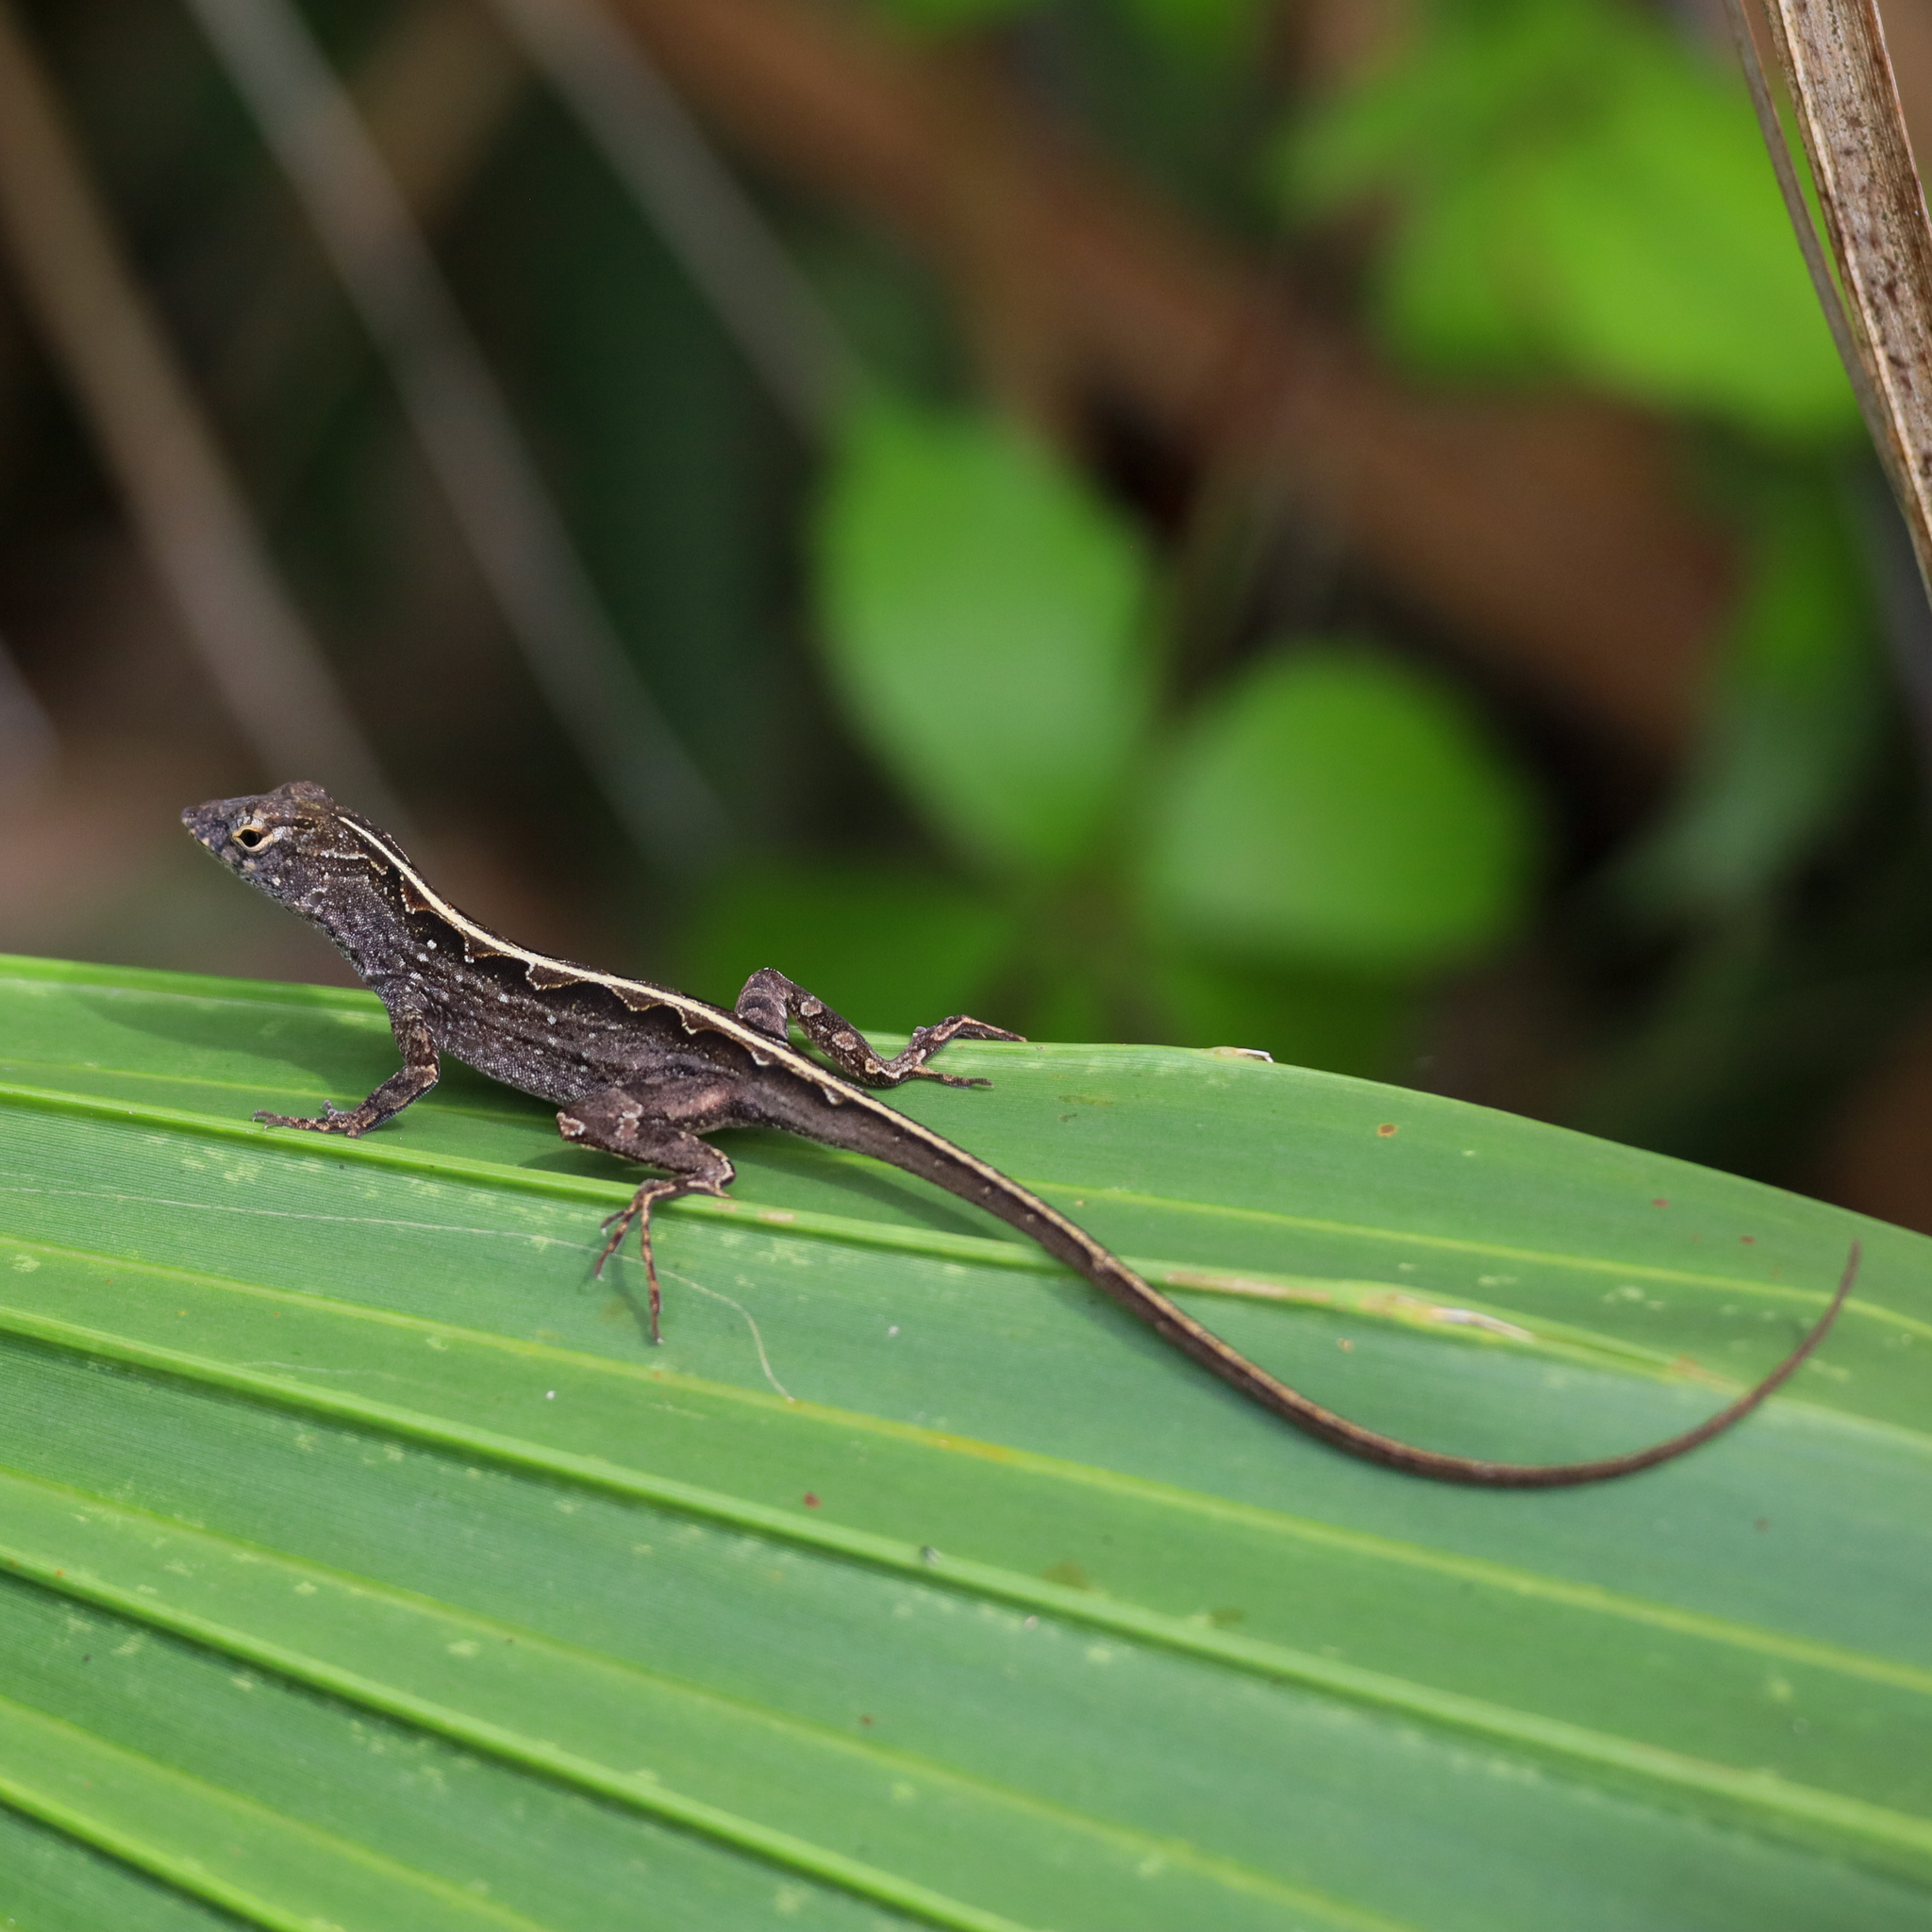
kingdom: Animalia
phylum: Chordata
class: Squamata
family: Dactyloidae
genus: Anolis
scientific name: Anolis sagrei
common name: Brown anole
